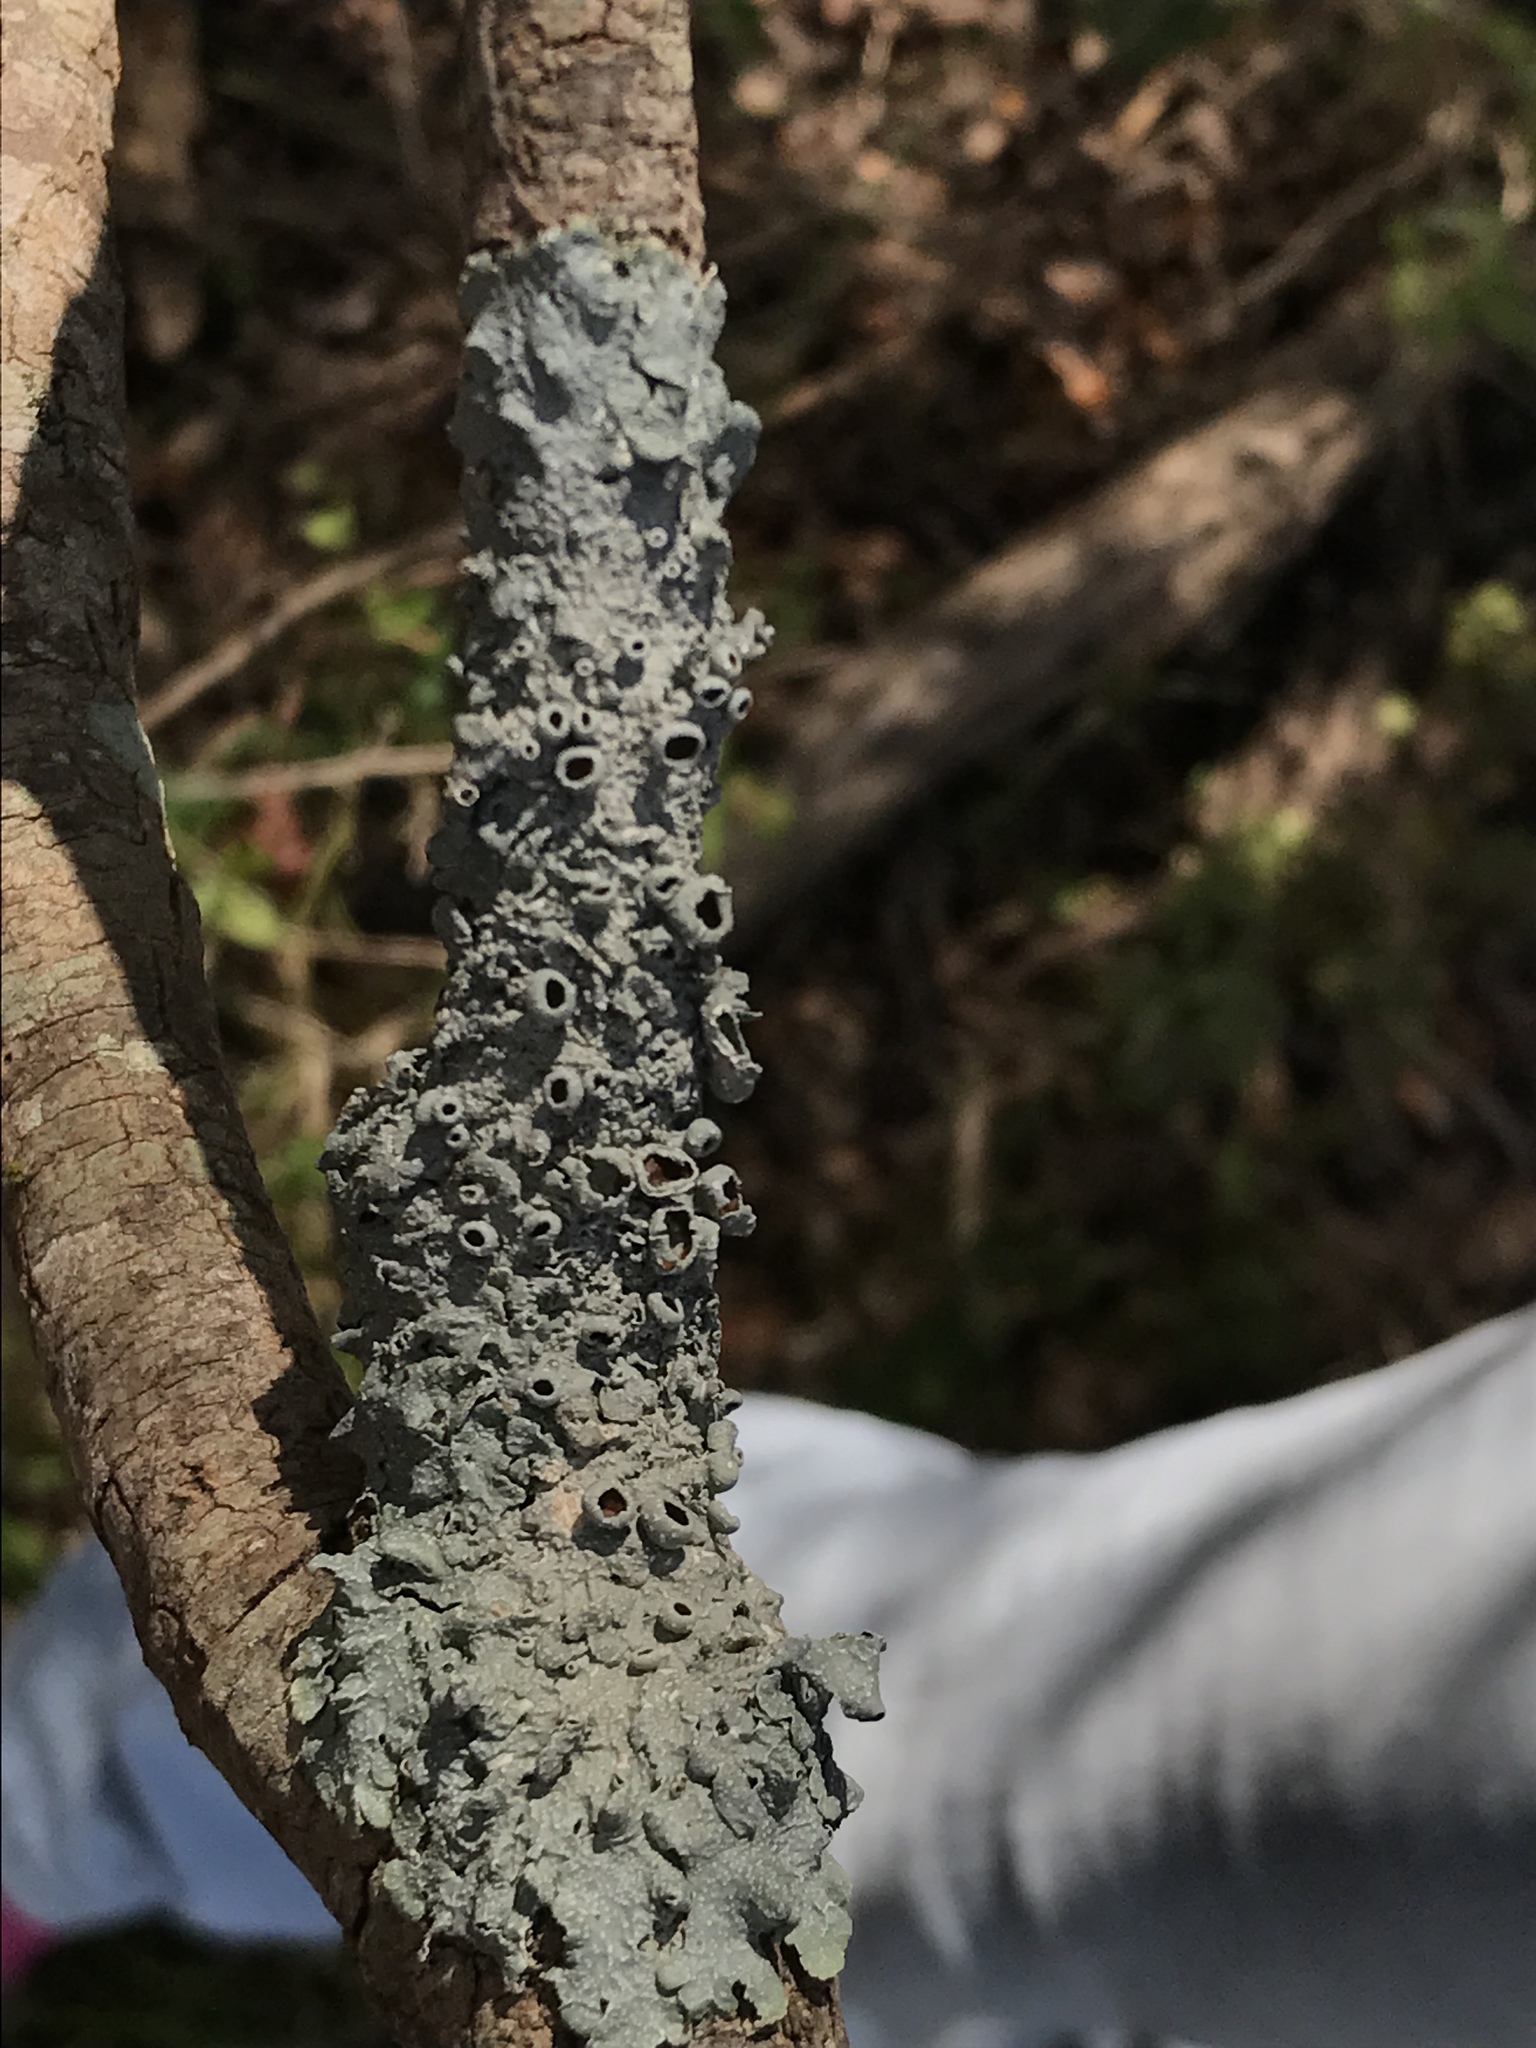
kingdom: Fungi
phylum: Ascomycota
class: Lecanoromycetes
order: Lecanorales
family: Parmeliaceae
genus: Punctelia
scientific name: Punctelia bolliana
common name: Eastern speckled shield lichen
